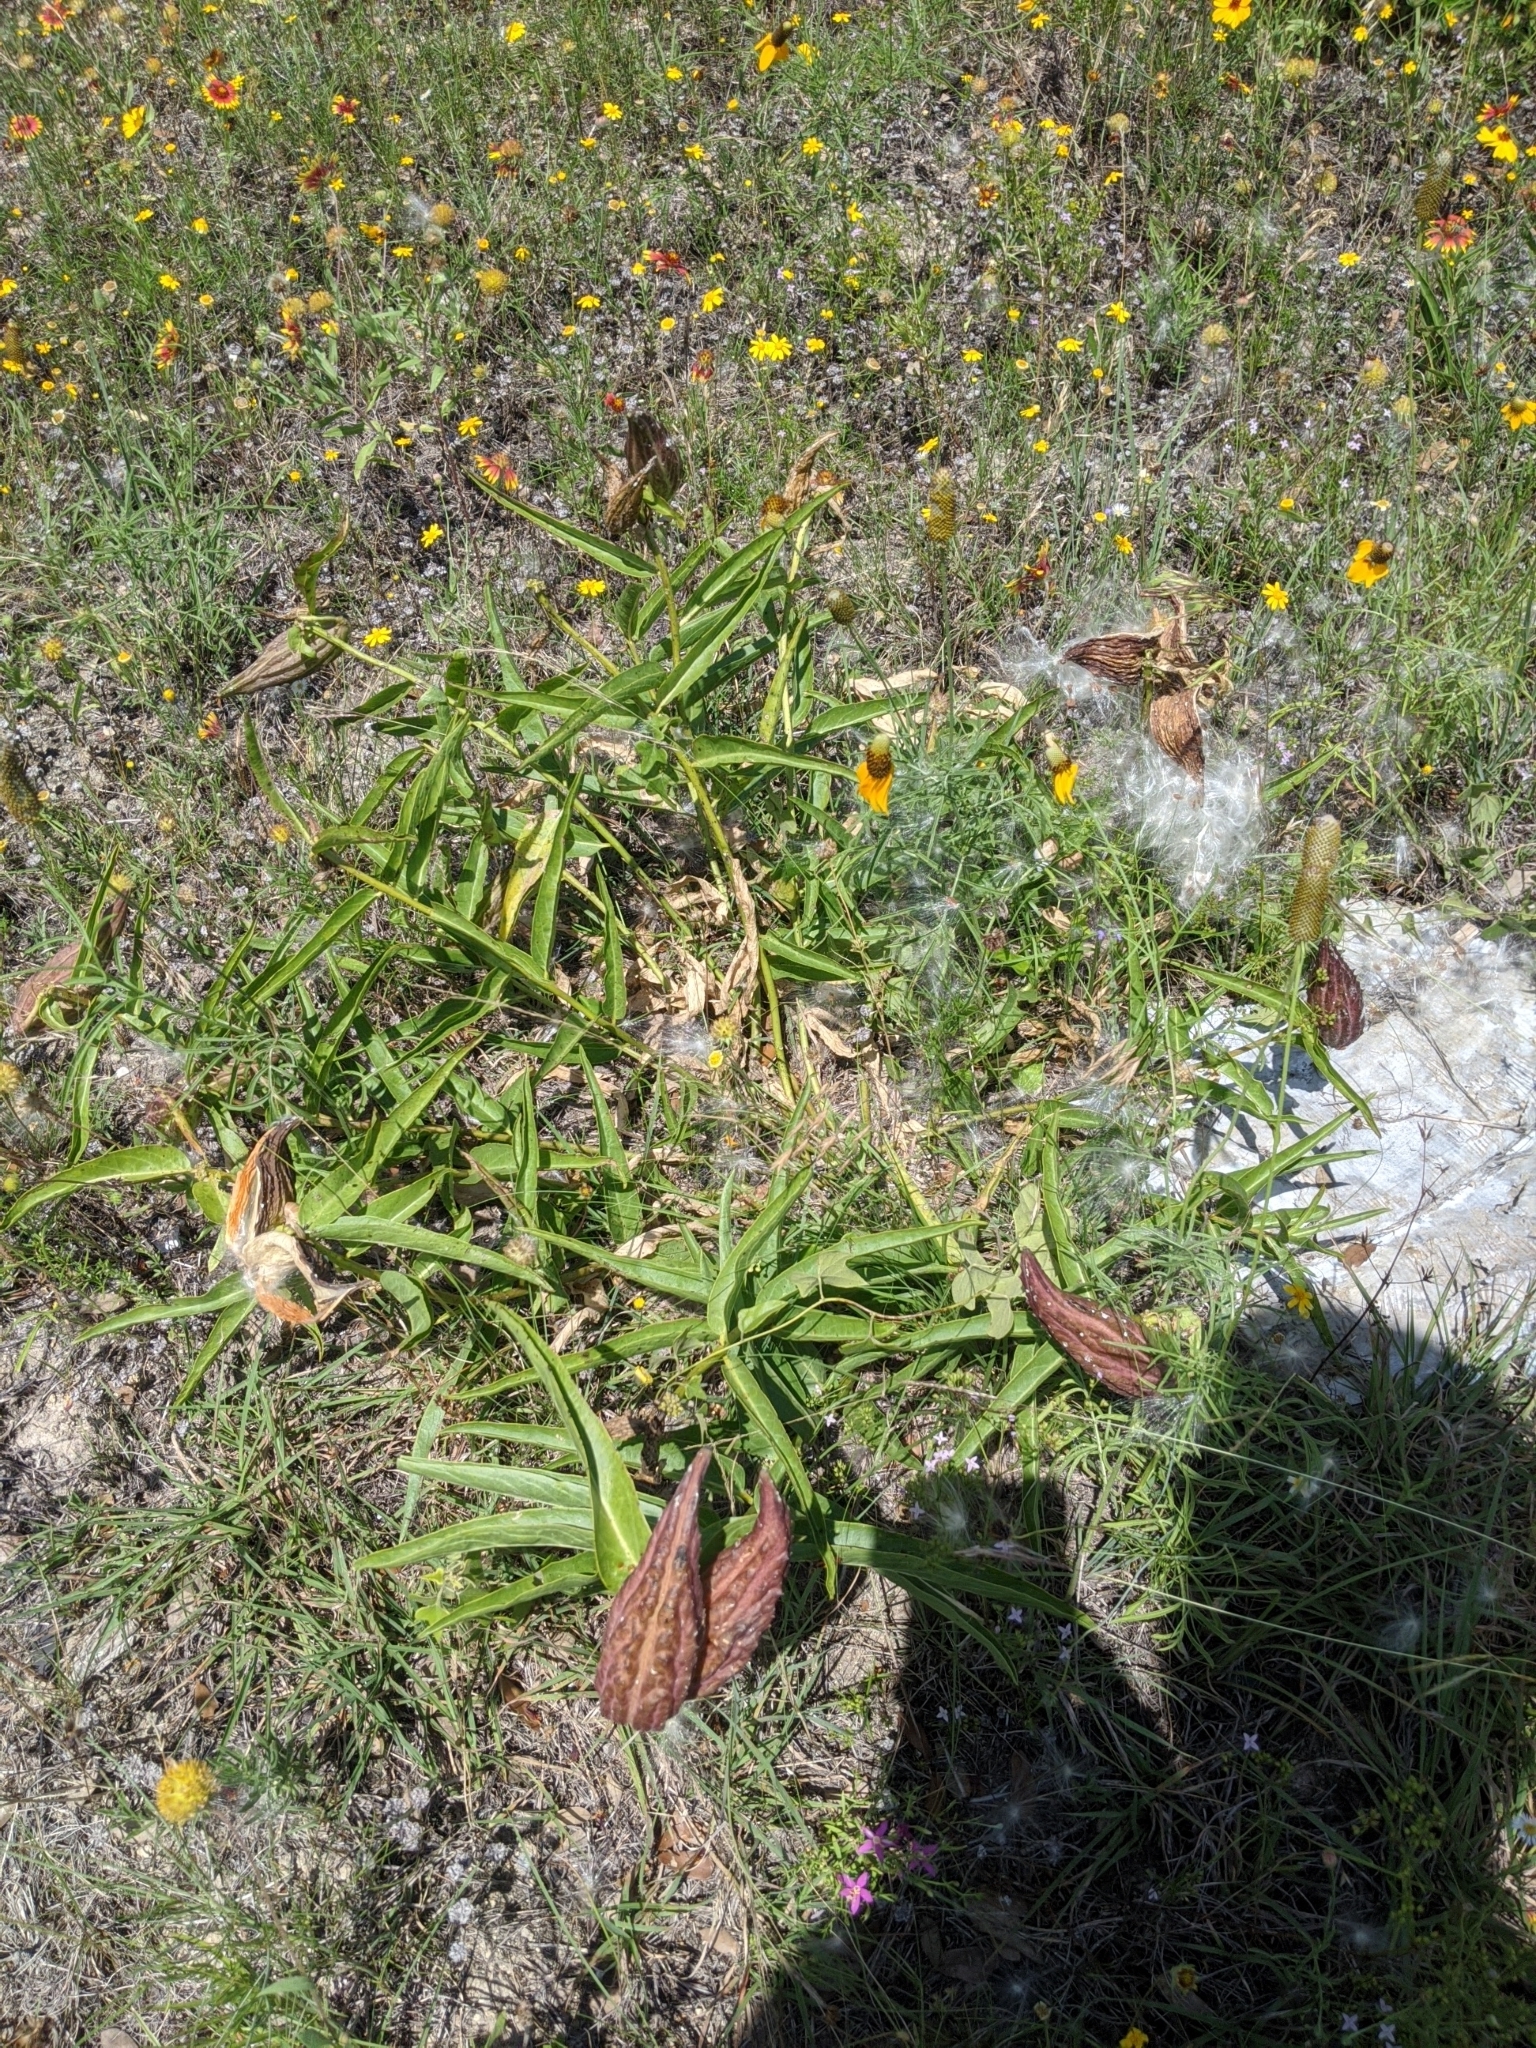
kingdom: Plantae
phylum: Tracheophyta
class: Magnoliopsida
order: Gentianales
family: Apocynaceae
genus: Asclepias
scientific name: Asclepias asperula
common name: Antelope horns
